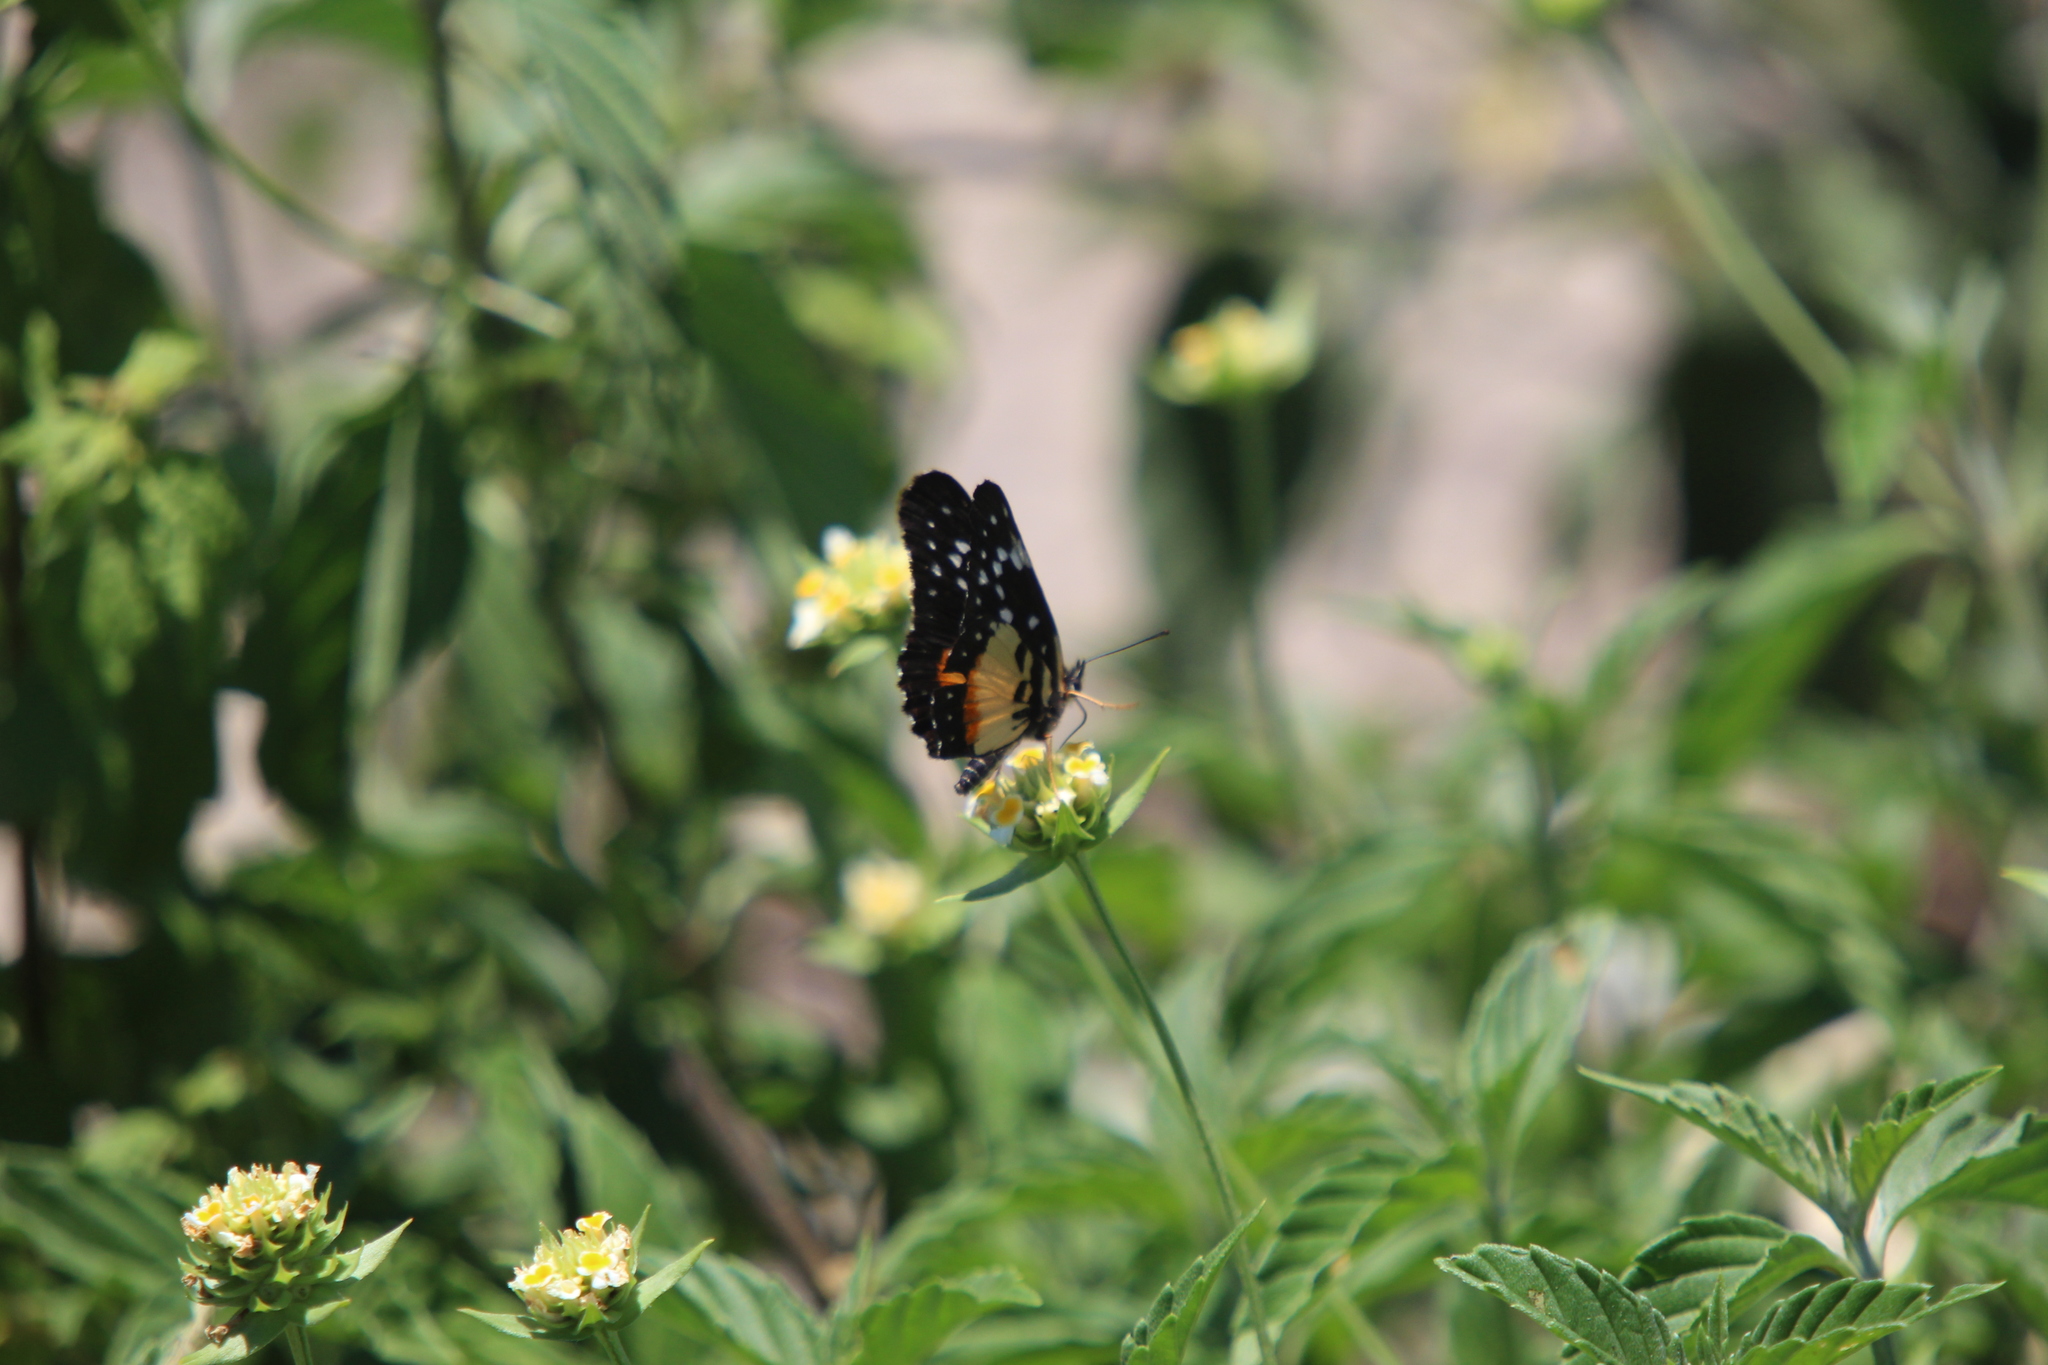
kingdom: Animalia
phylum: Arthropoda
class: Insecta
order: Lepidoptera
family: Nymphalidae
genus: Chlosyne
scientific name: Chlosyne rosita
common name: Rosita patch
